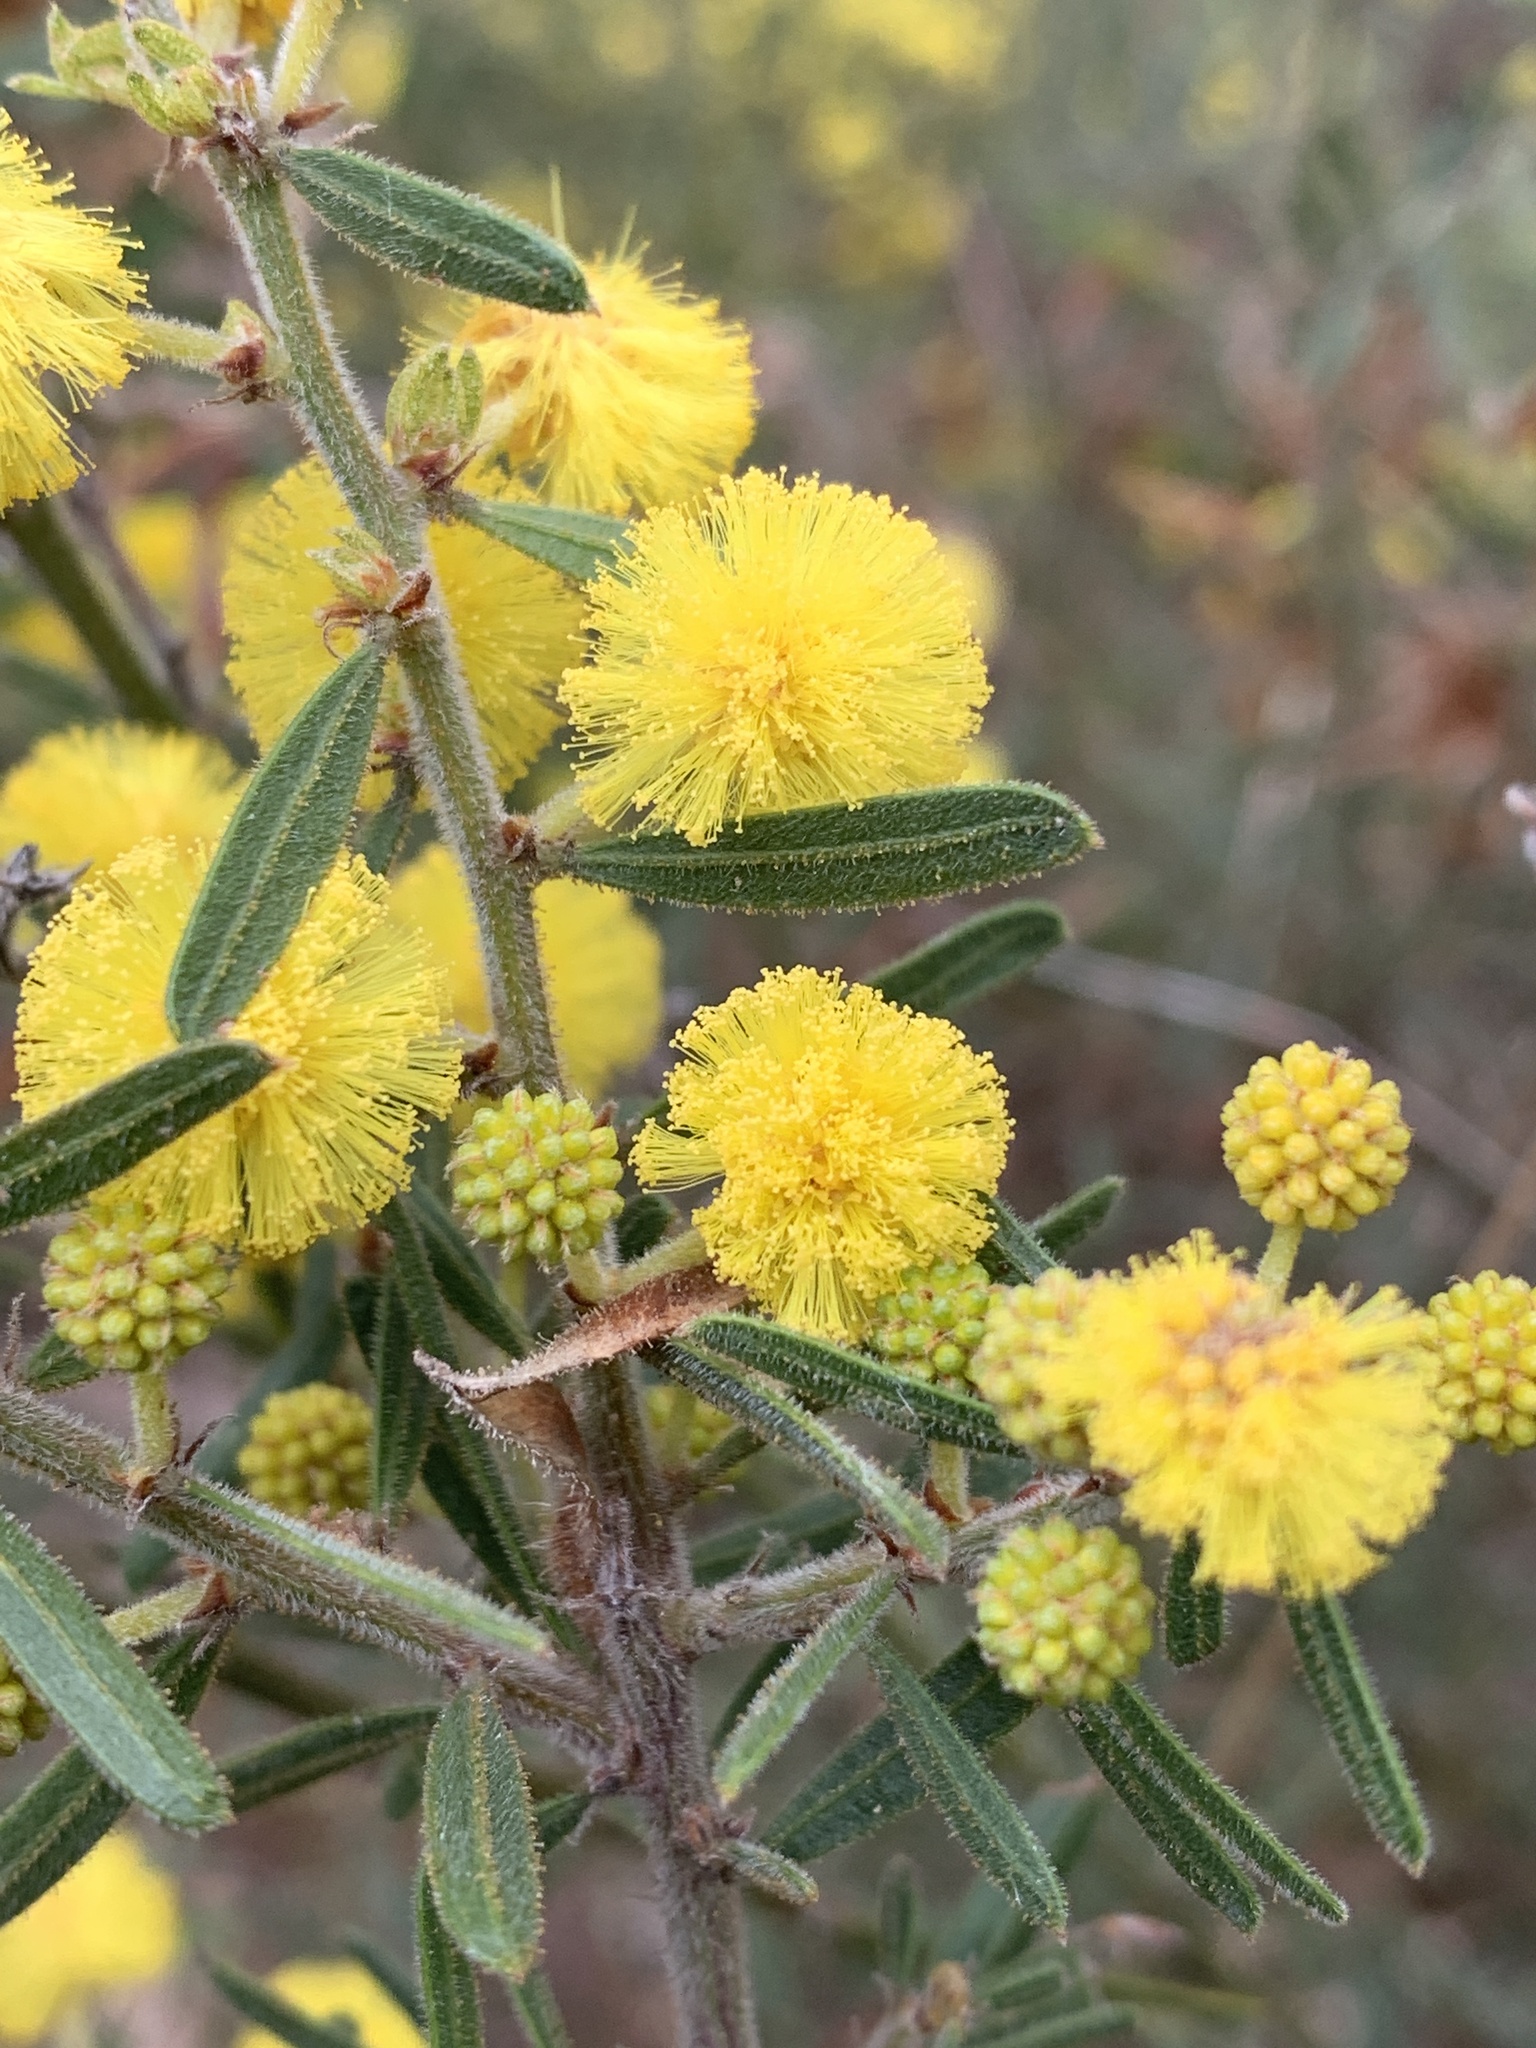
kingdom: Plantae
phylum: Tracheophyta
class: Magnoliopsida
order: Fabales
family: Fabaceae
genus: Acacia
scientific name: Acacia aspera
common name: Rough wattle
